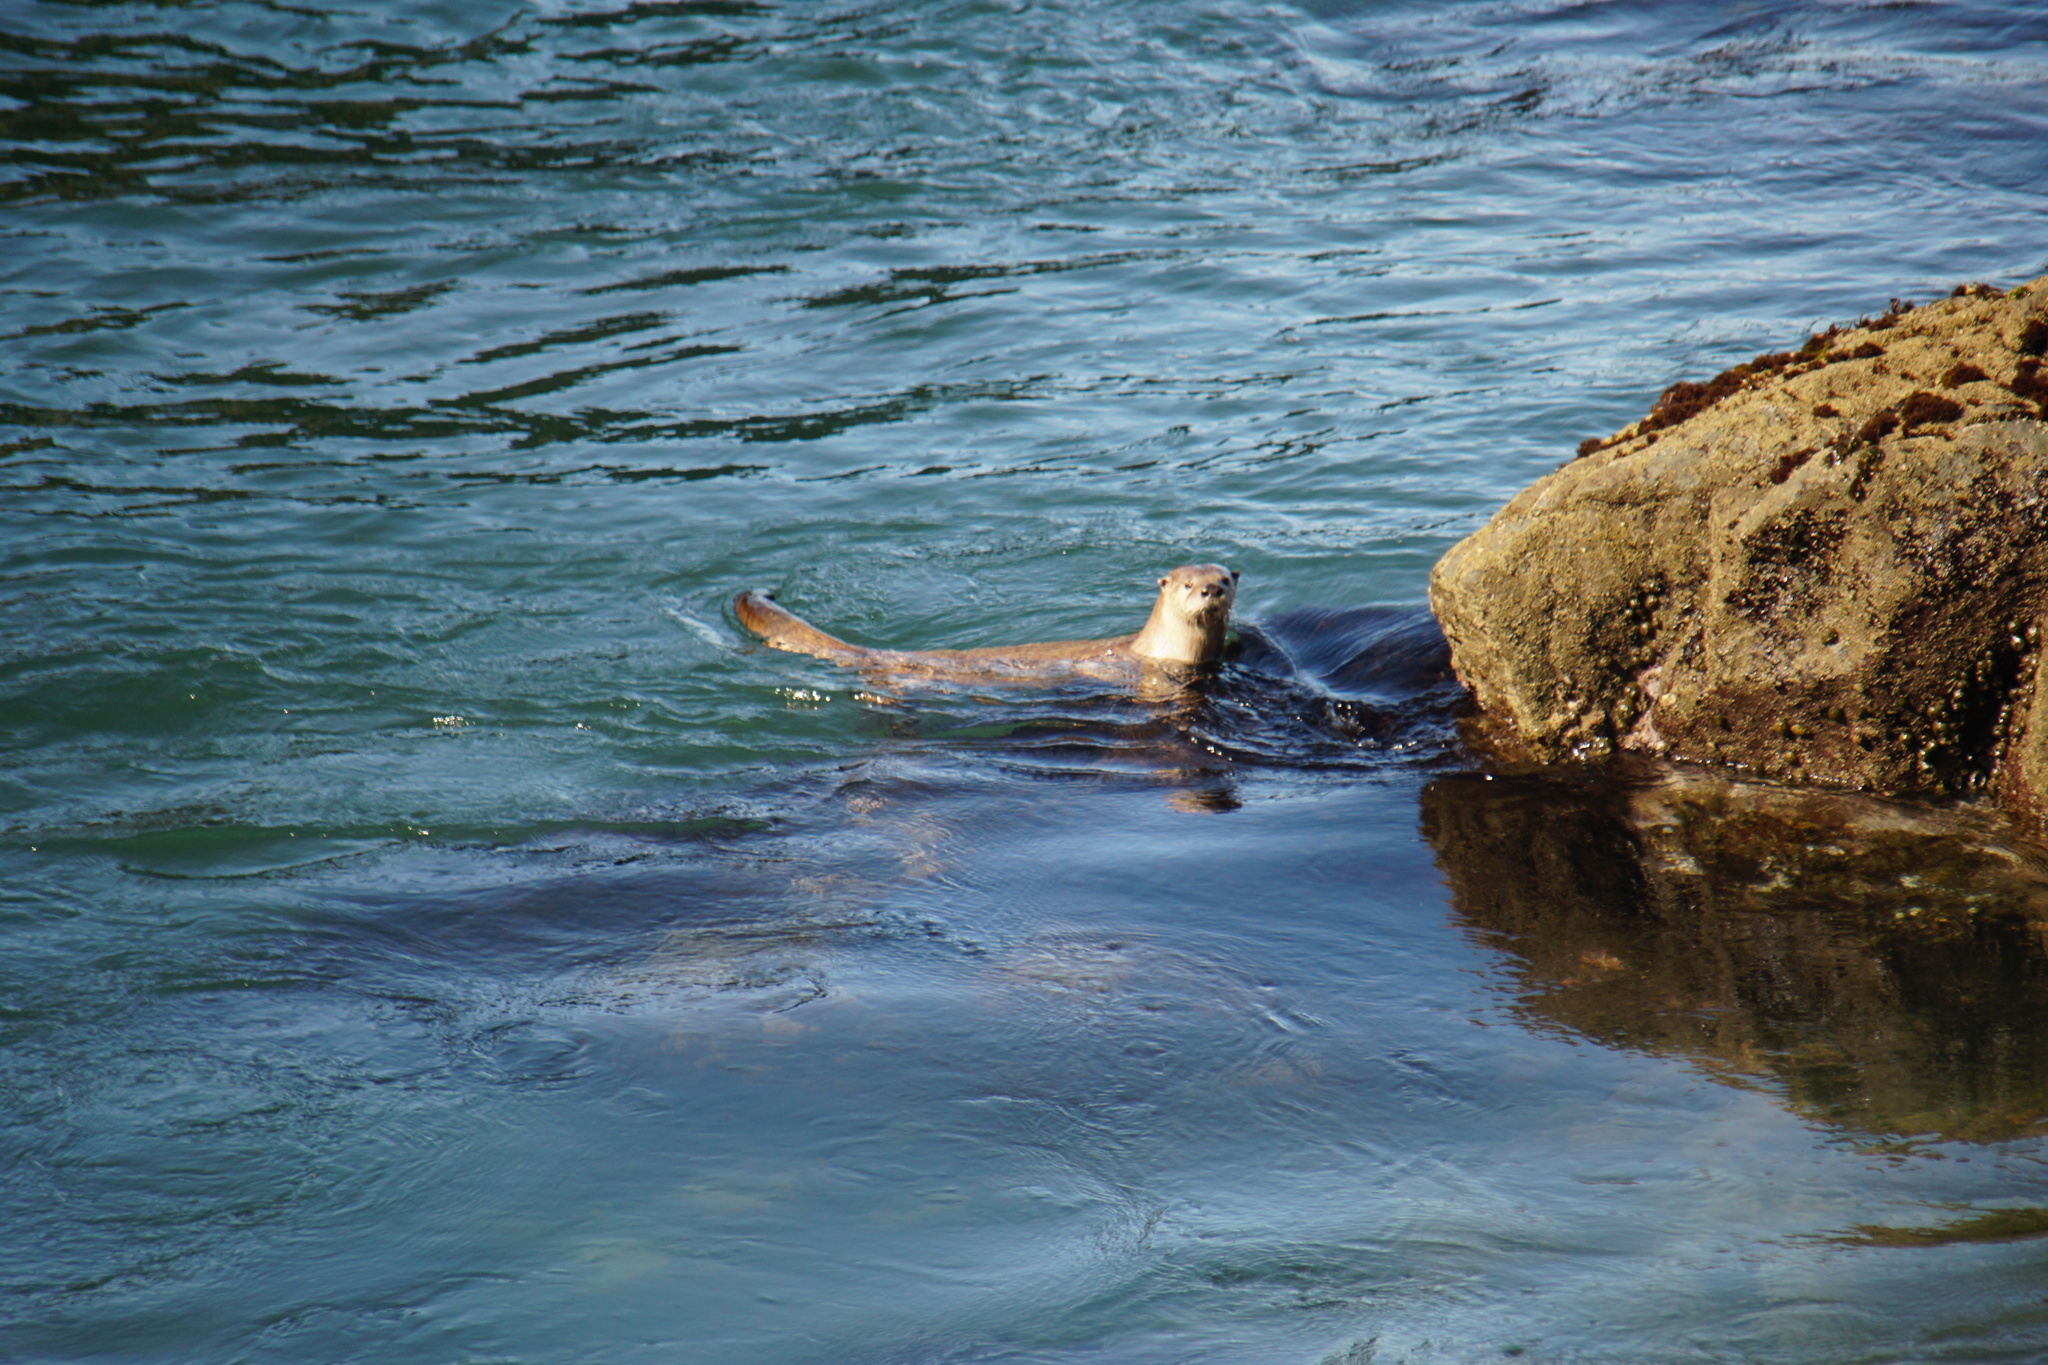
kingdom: Animalia
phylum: Chordata
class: Mammalia
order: Carnivora
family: Mustelidae
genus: Lontra
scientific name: Lontra canadensis
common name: North american river otter
